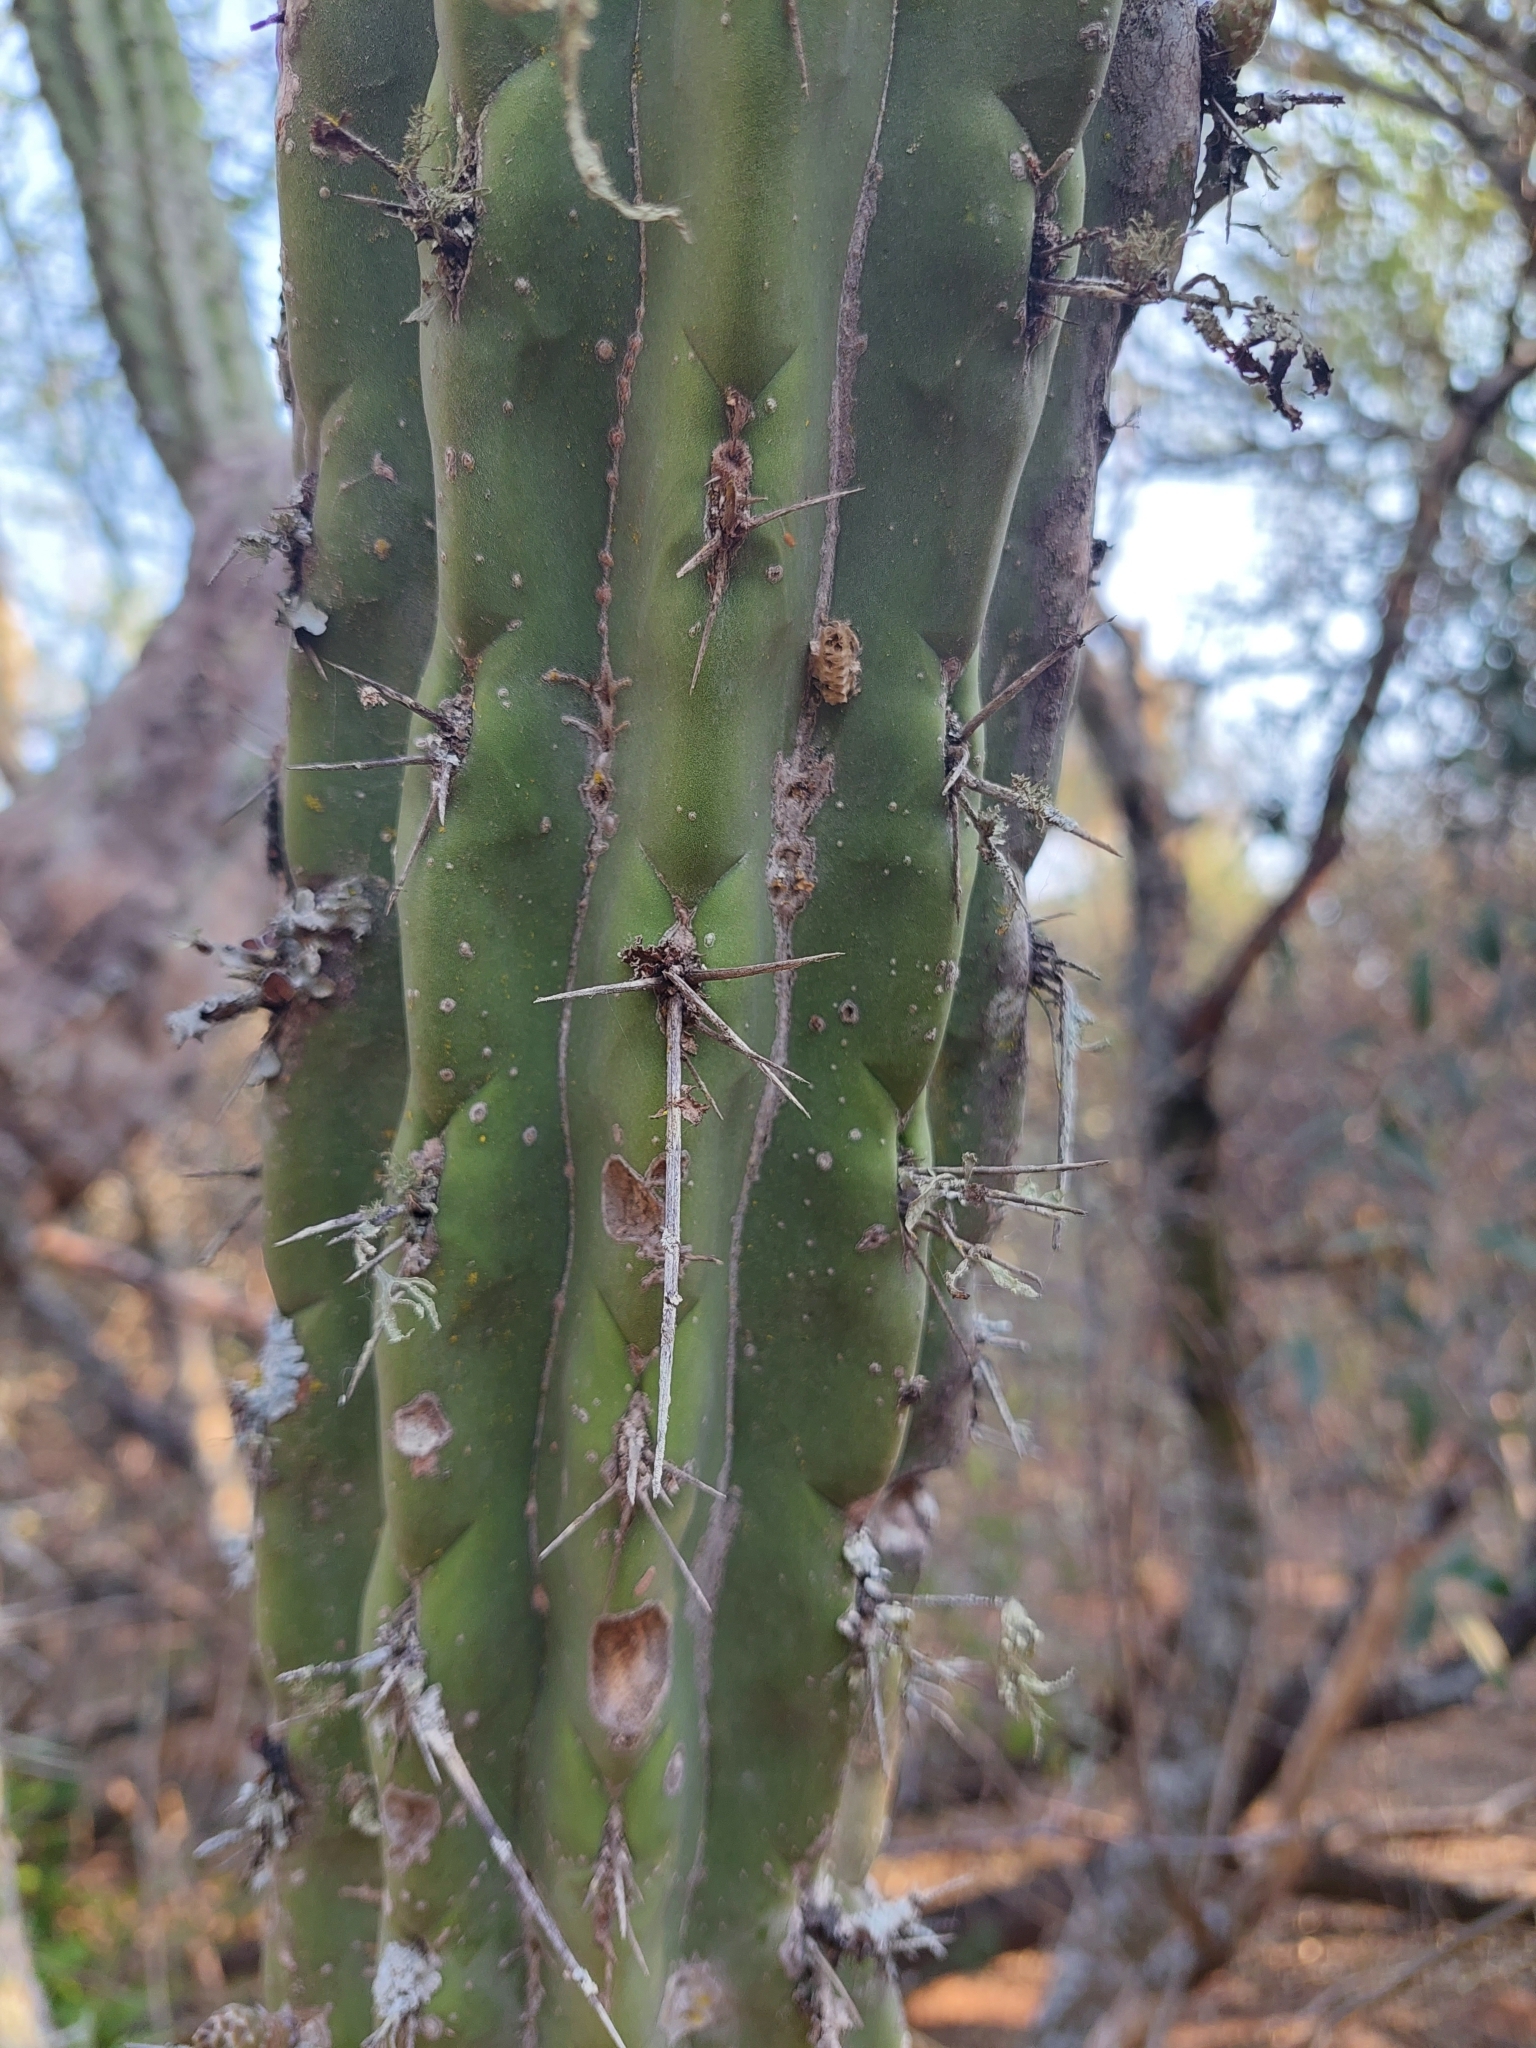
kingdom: Plantae
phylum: Tracheophyta
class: Magnoliopsida
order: Caryophyllales
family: Cactaceae
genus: Stetsonia
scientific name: Stetsonia coryne
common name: Toothpick cactus
